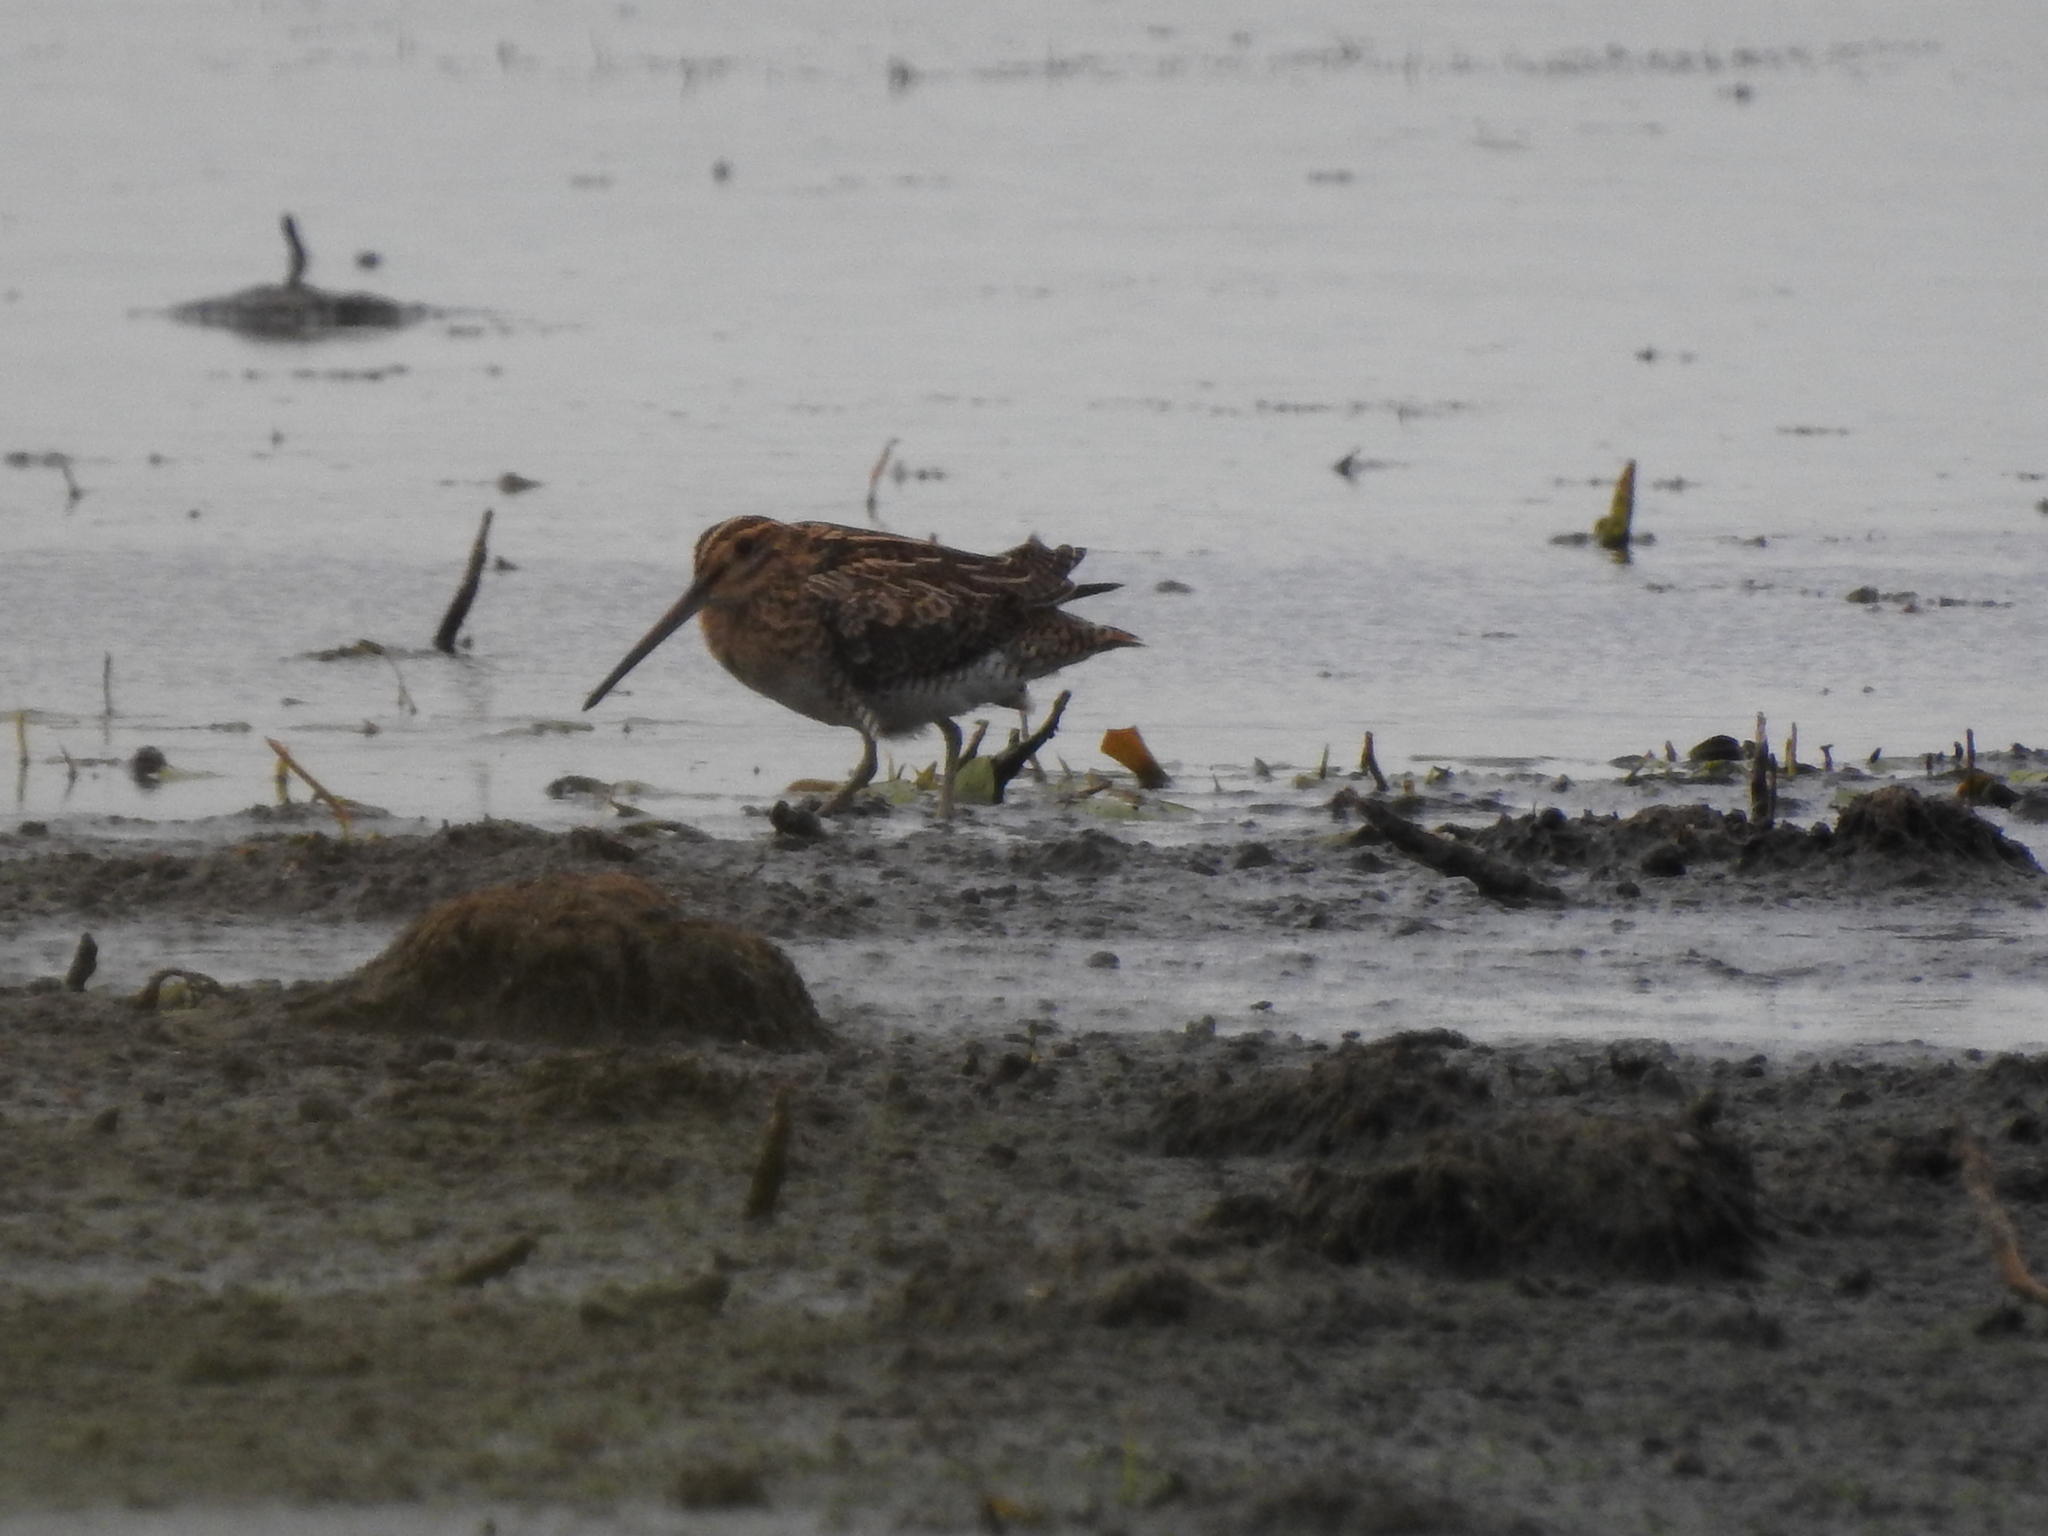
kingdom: Animalia
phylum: Chordata
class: Aves
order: Charadriiformes
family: Scolopacidae
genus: Gallinago
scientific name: Gallinago gallinago
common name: Common snipe
